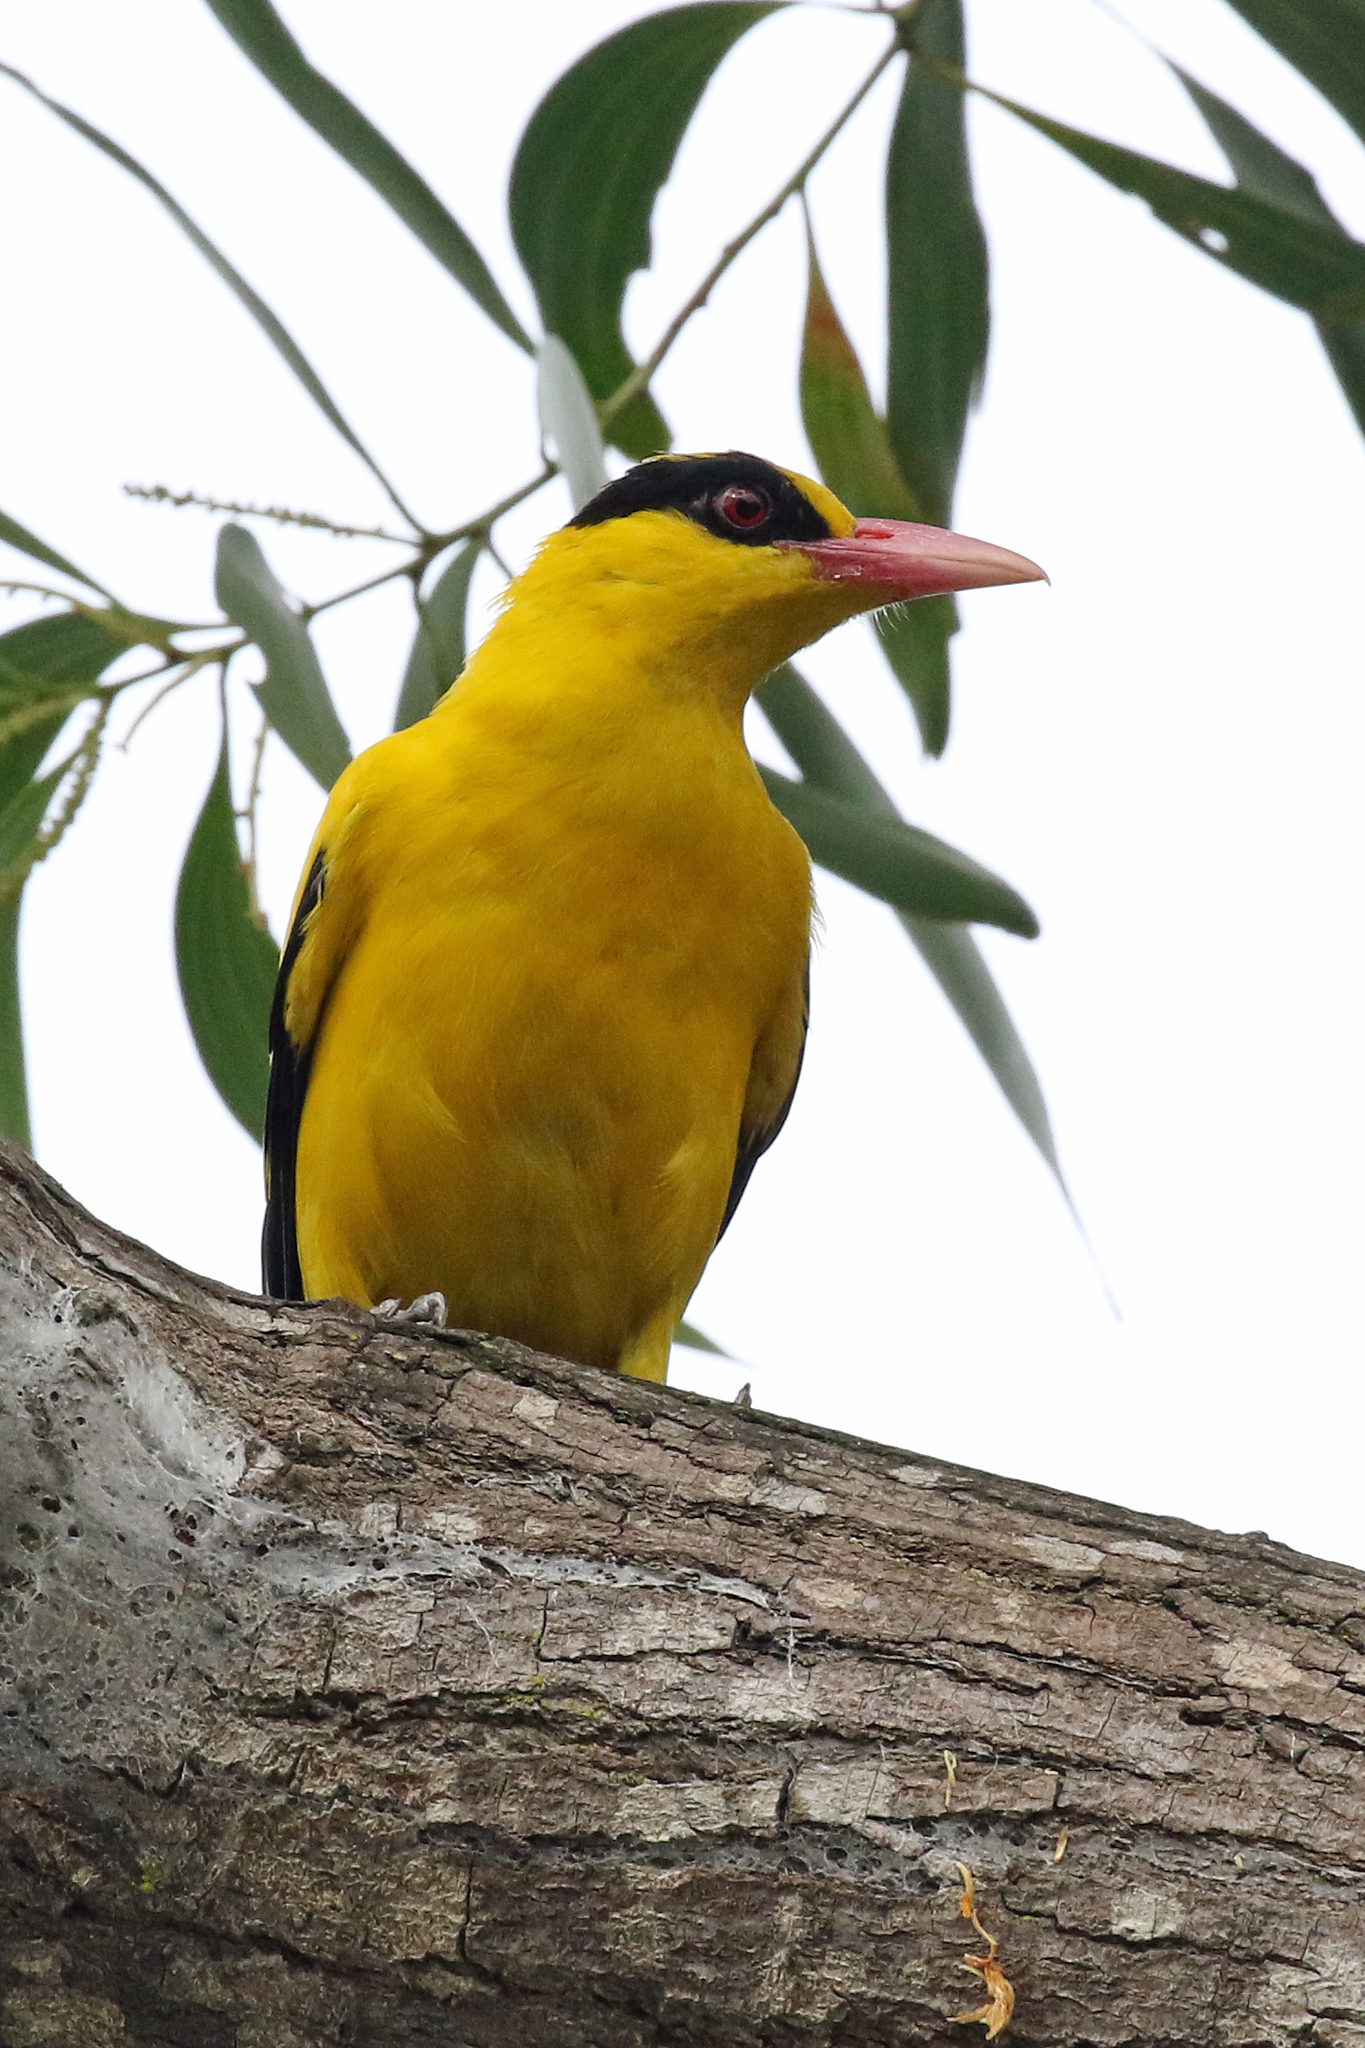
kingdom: Animalia
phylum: Chordata
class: Aves
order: Passeriformes
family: Oriolidae
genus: Oriolus
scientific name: Oriolus chinensis
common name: Black-naped oriole
